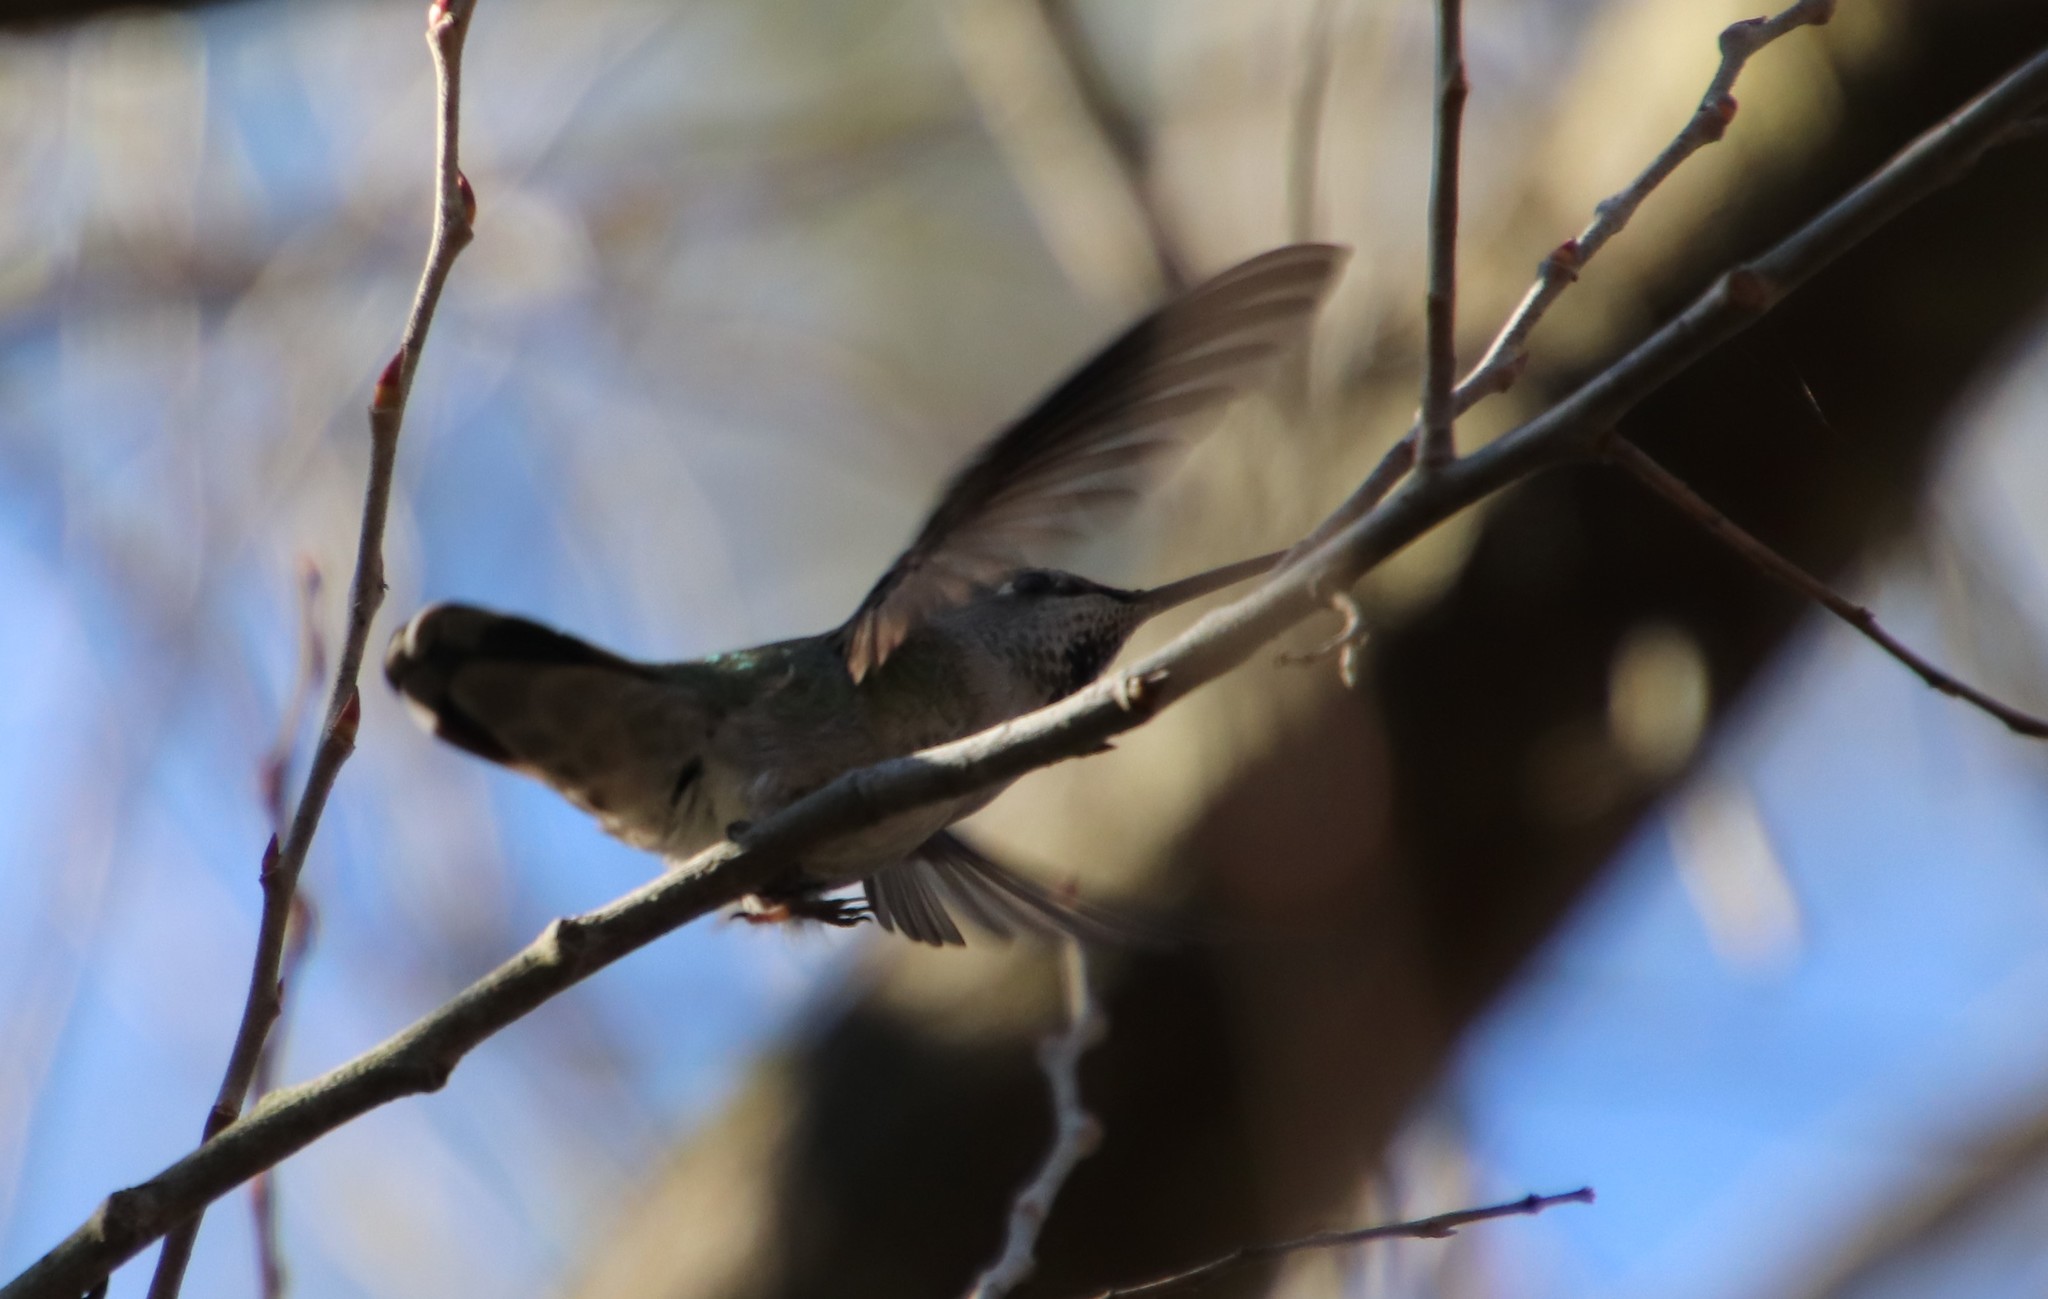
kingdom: Animalia
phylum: Chordata
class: Aves
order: Apodiformes
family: Trochilidae
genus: Calypte
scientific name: Calypte anna
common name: Anna's hummingbird
